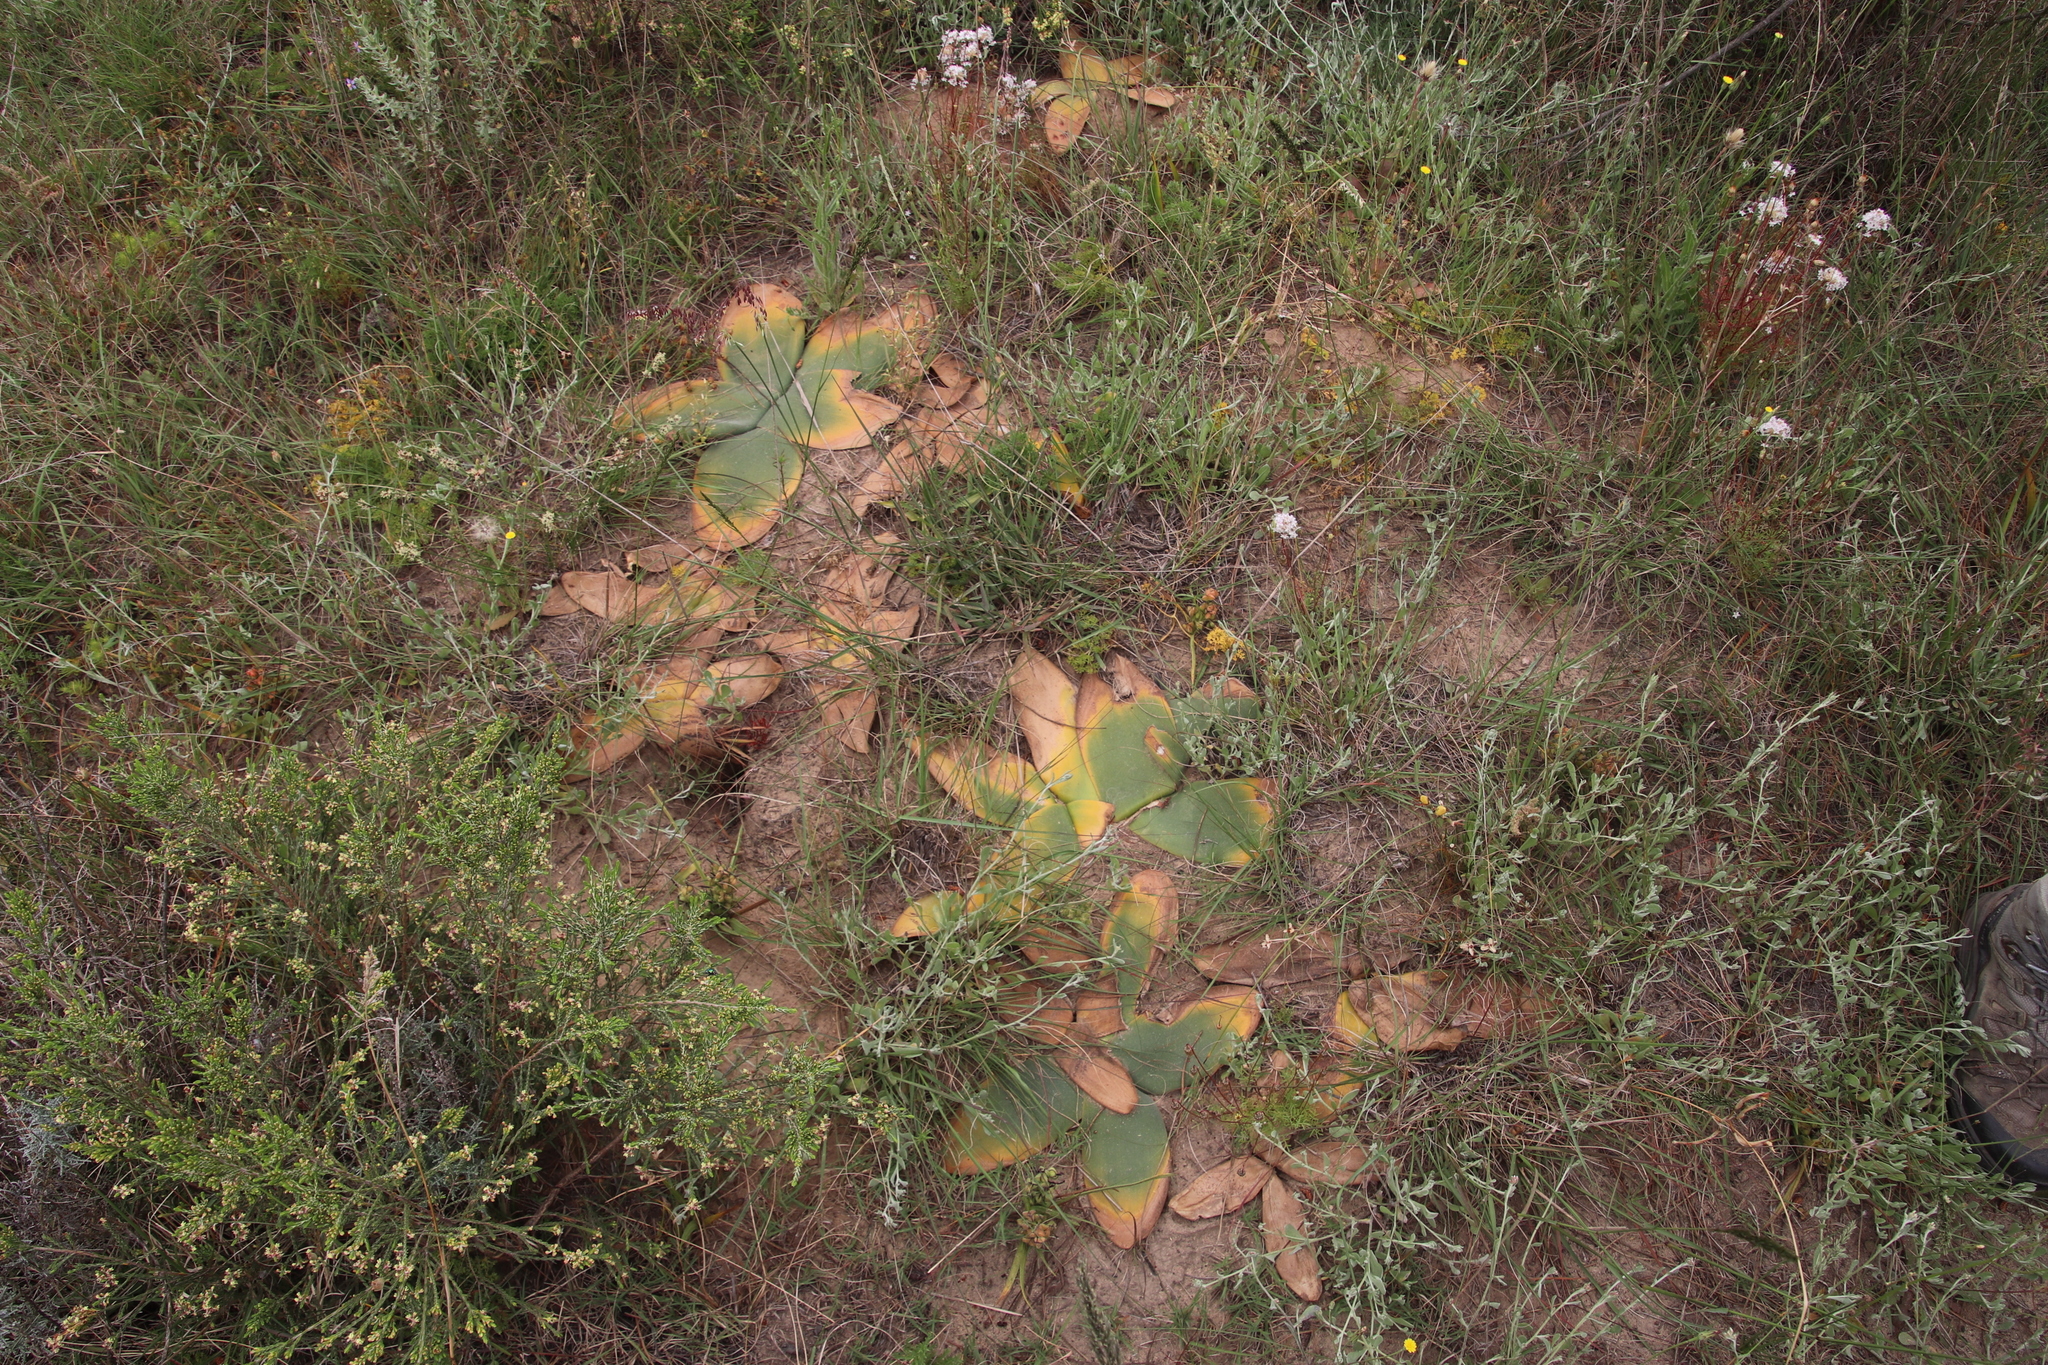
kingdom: Plantae
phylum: Tracheophyta
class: Liliopsida
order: Asparagales
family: Amaryllidaceae
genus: Brunsvigia
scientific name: Brunsvigia orientalis
